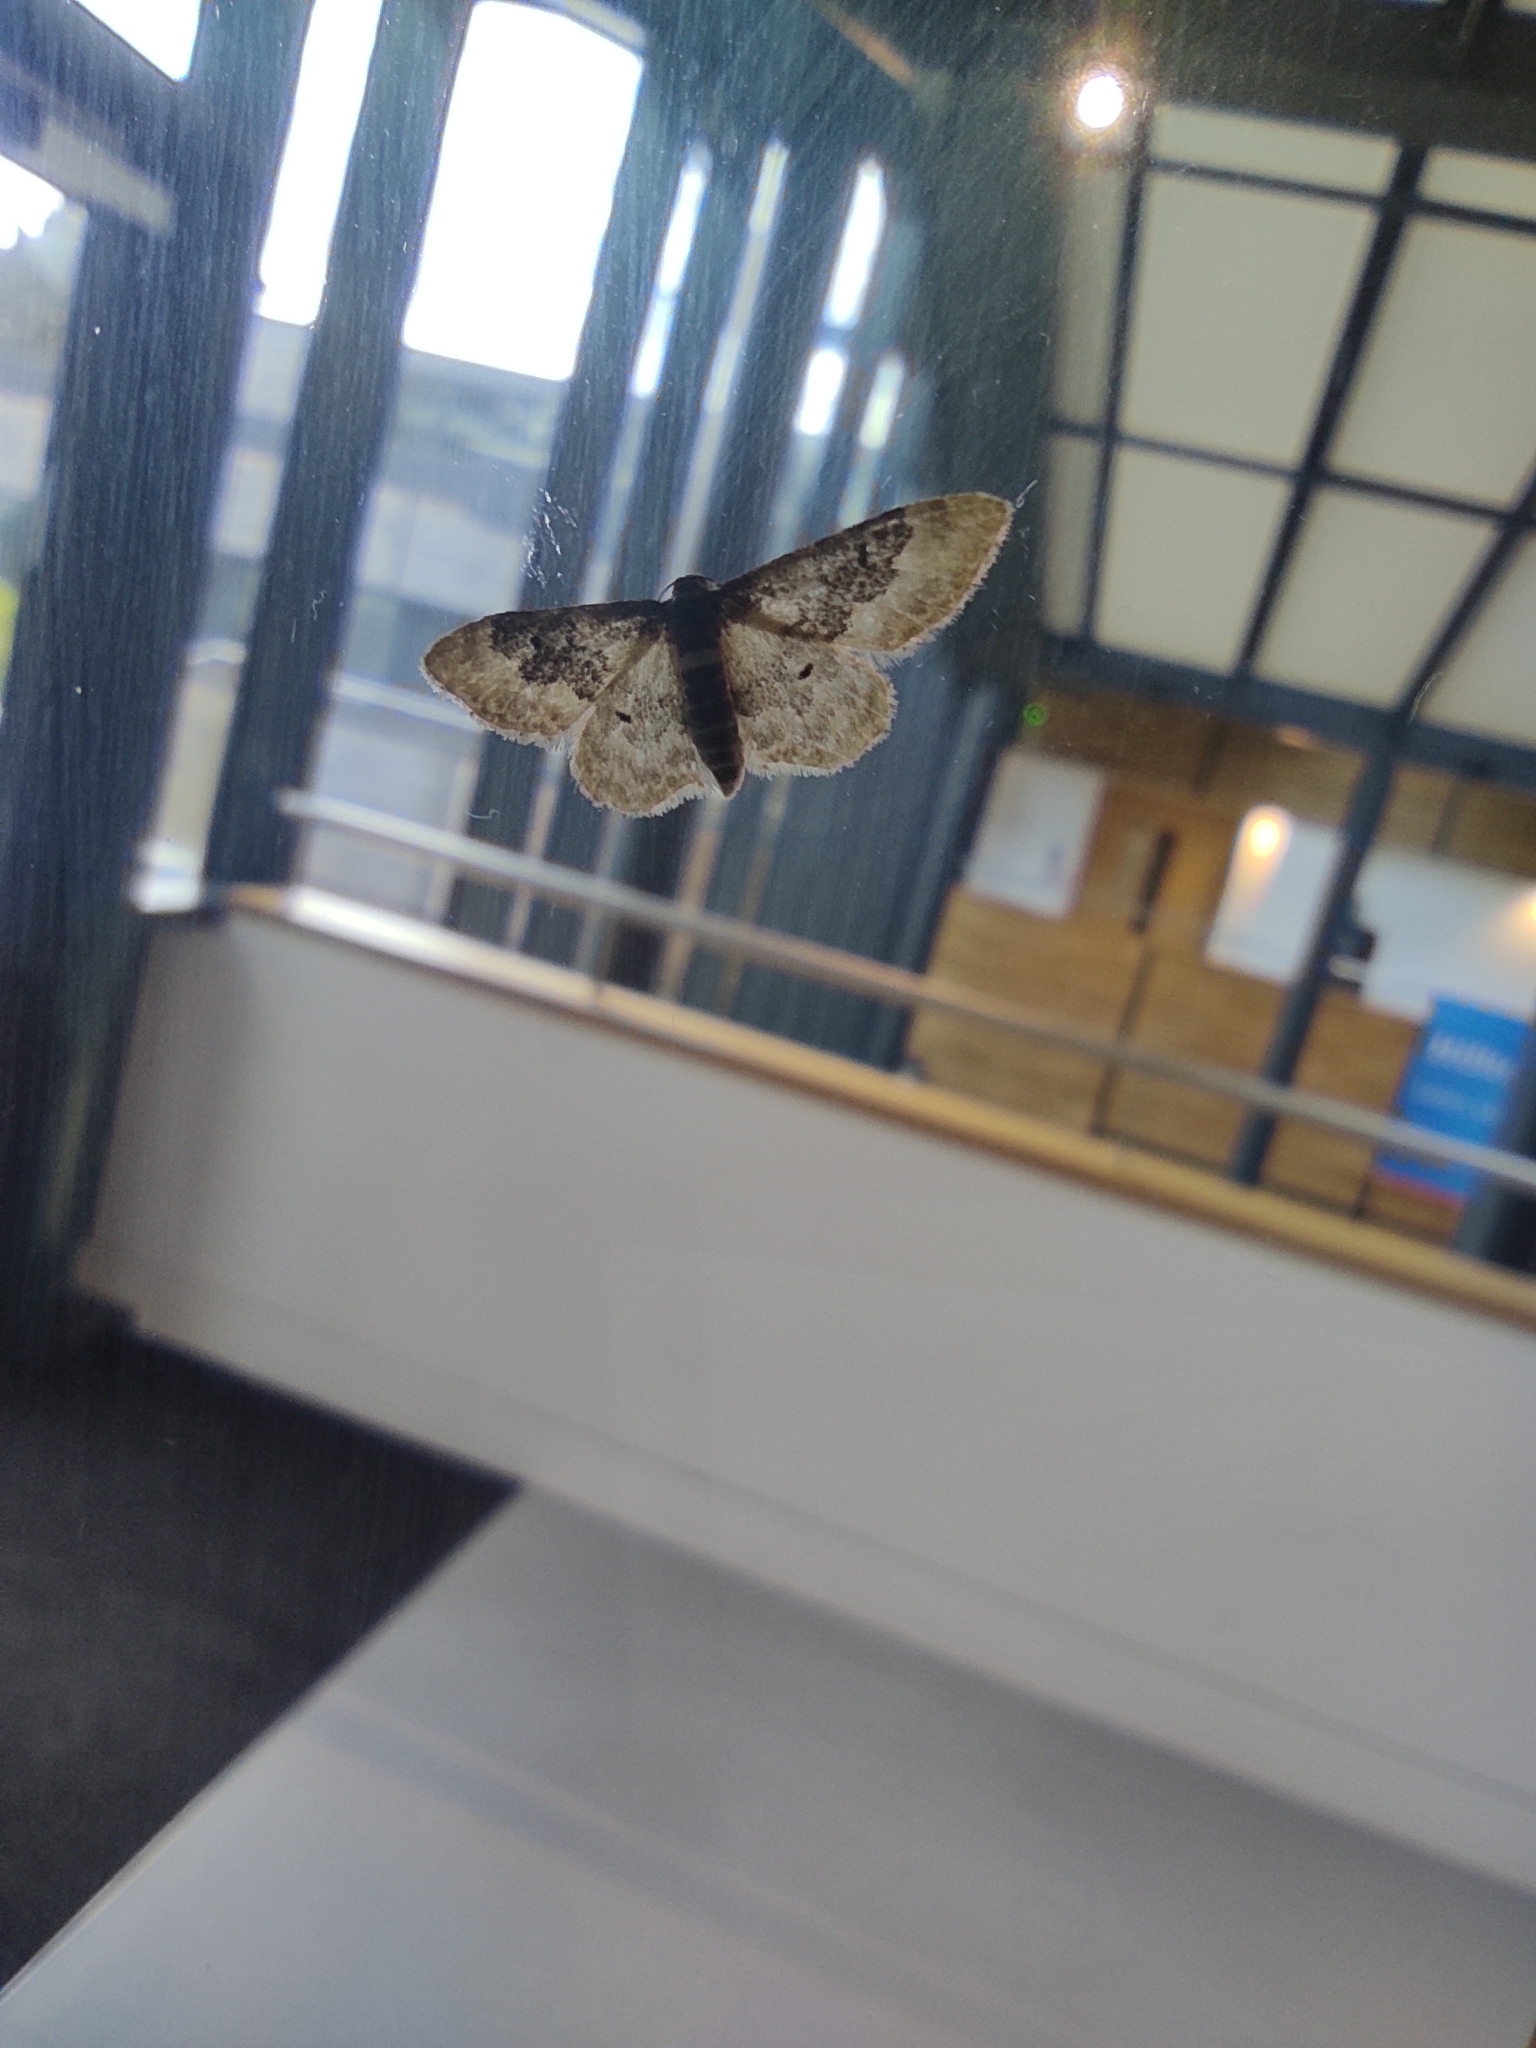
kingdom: Animalia
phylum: Arthropoda
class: Insecta
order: Lepidoptera
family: Geometridae
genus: Idaea
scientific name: Idaea rusticata
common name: Least carpet
